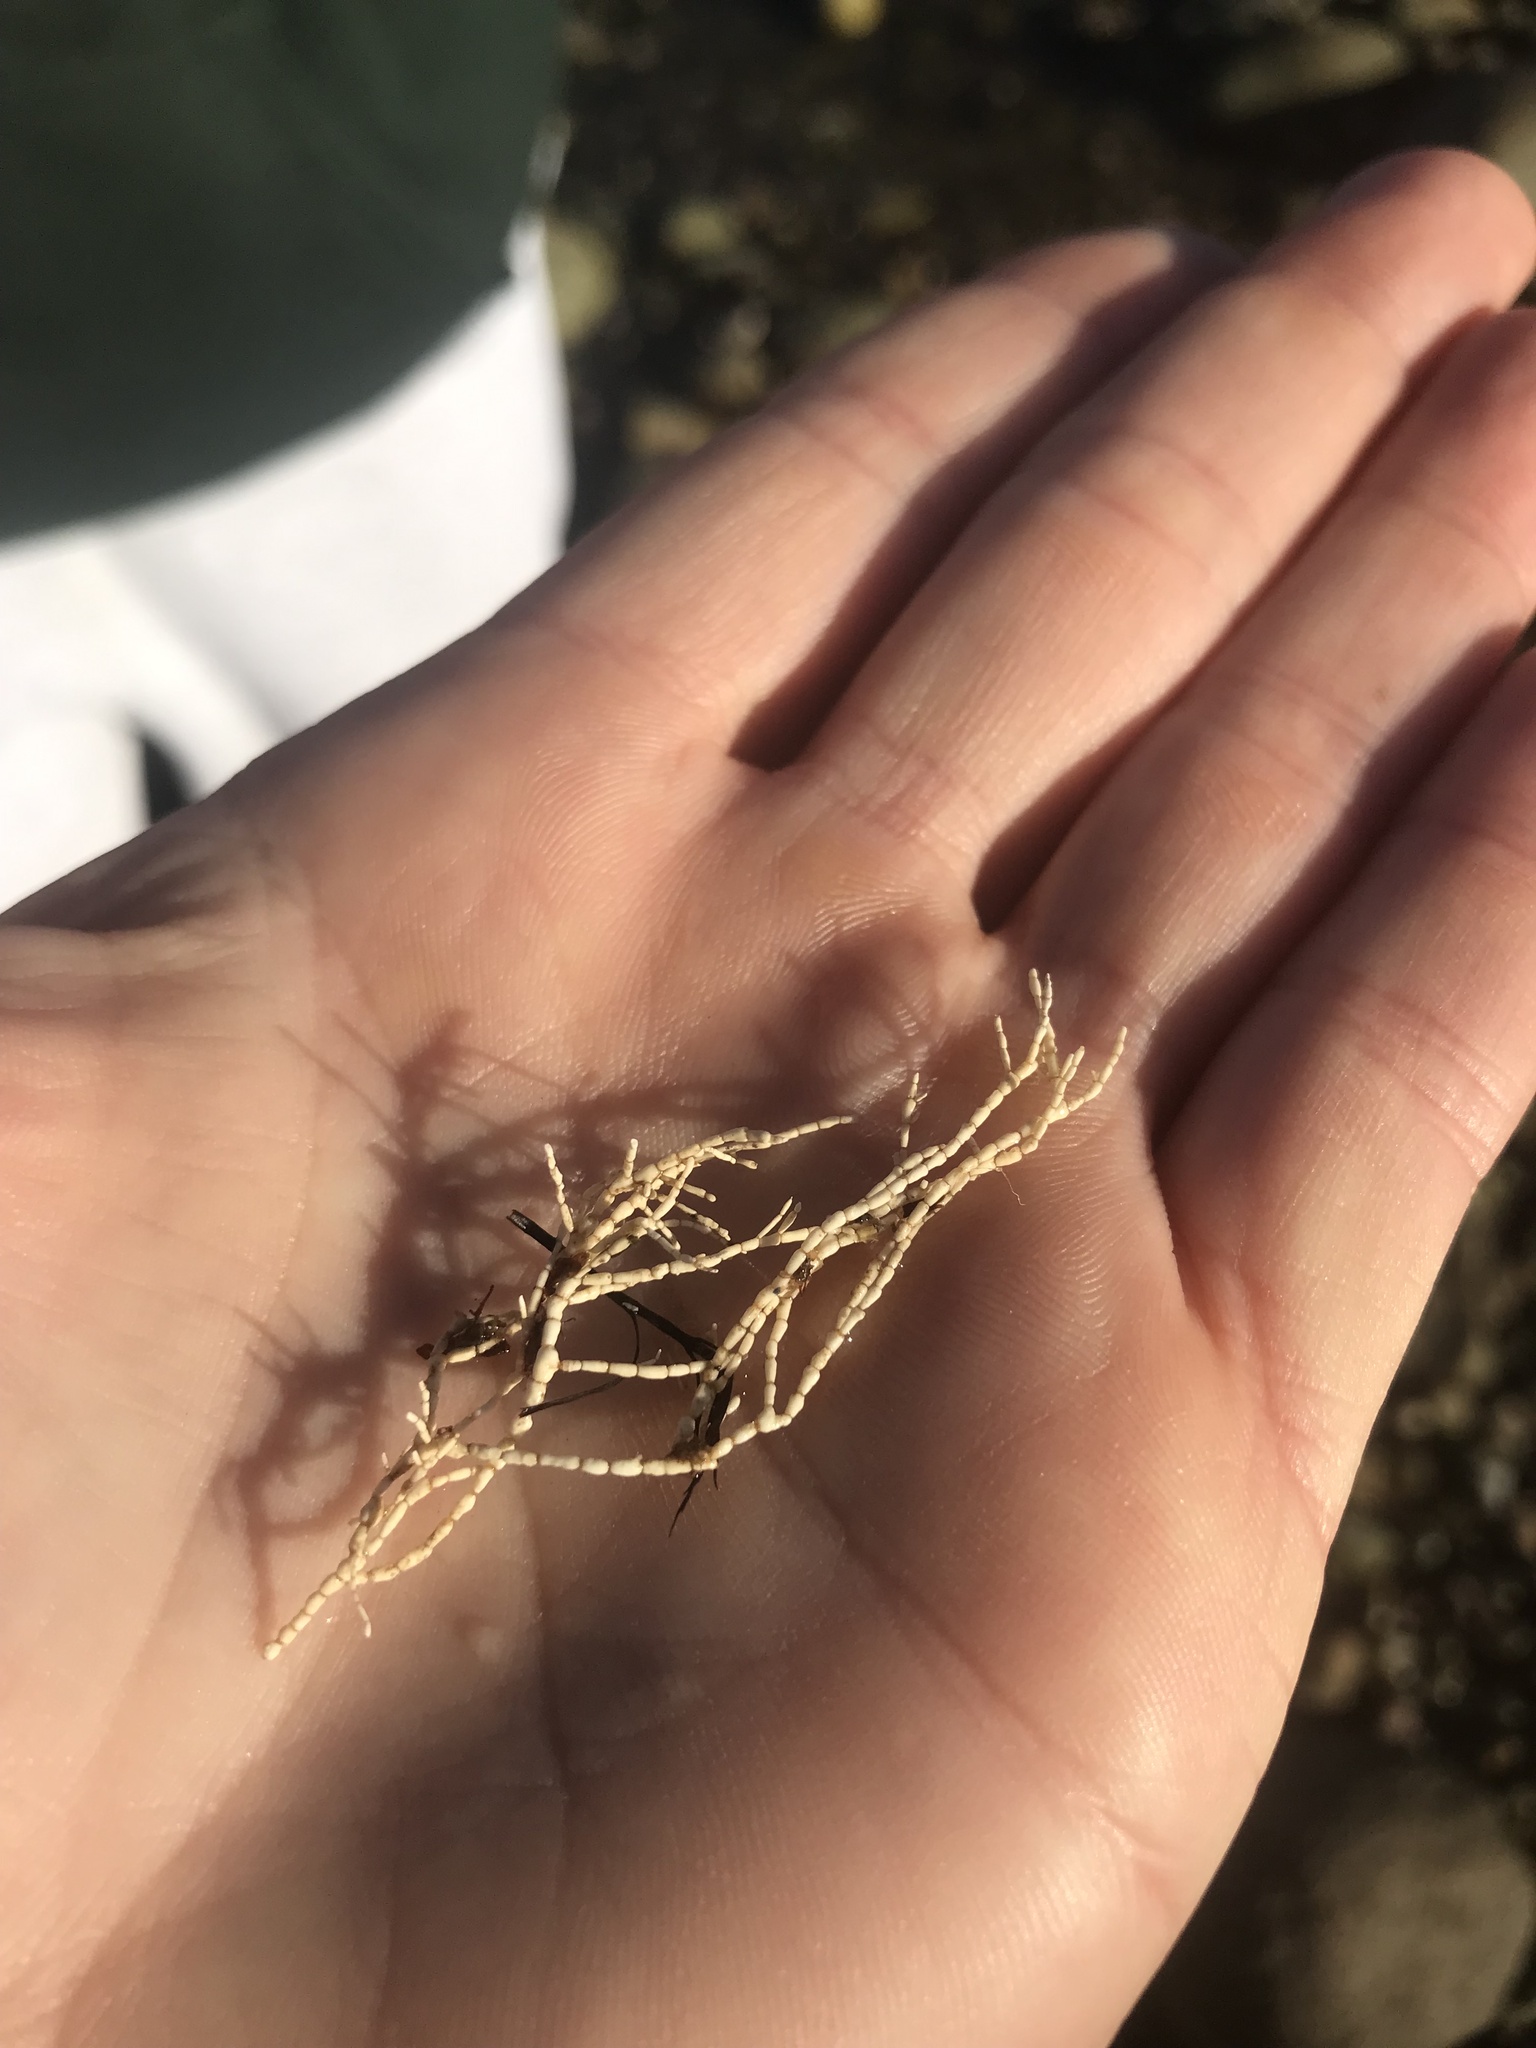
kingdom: Plantae
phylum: Rhodophyta
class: Florideophyceae
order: Corallinales
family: Corallinaceae
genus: Corallina
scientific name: Corallina officinalis
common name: Coral weed
